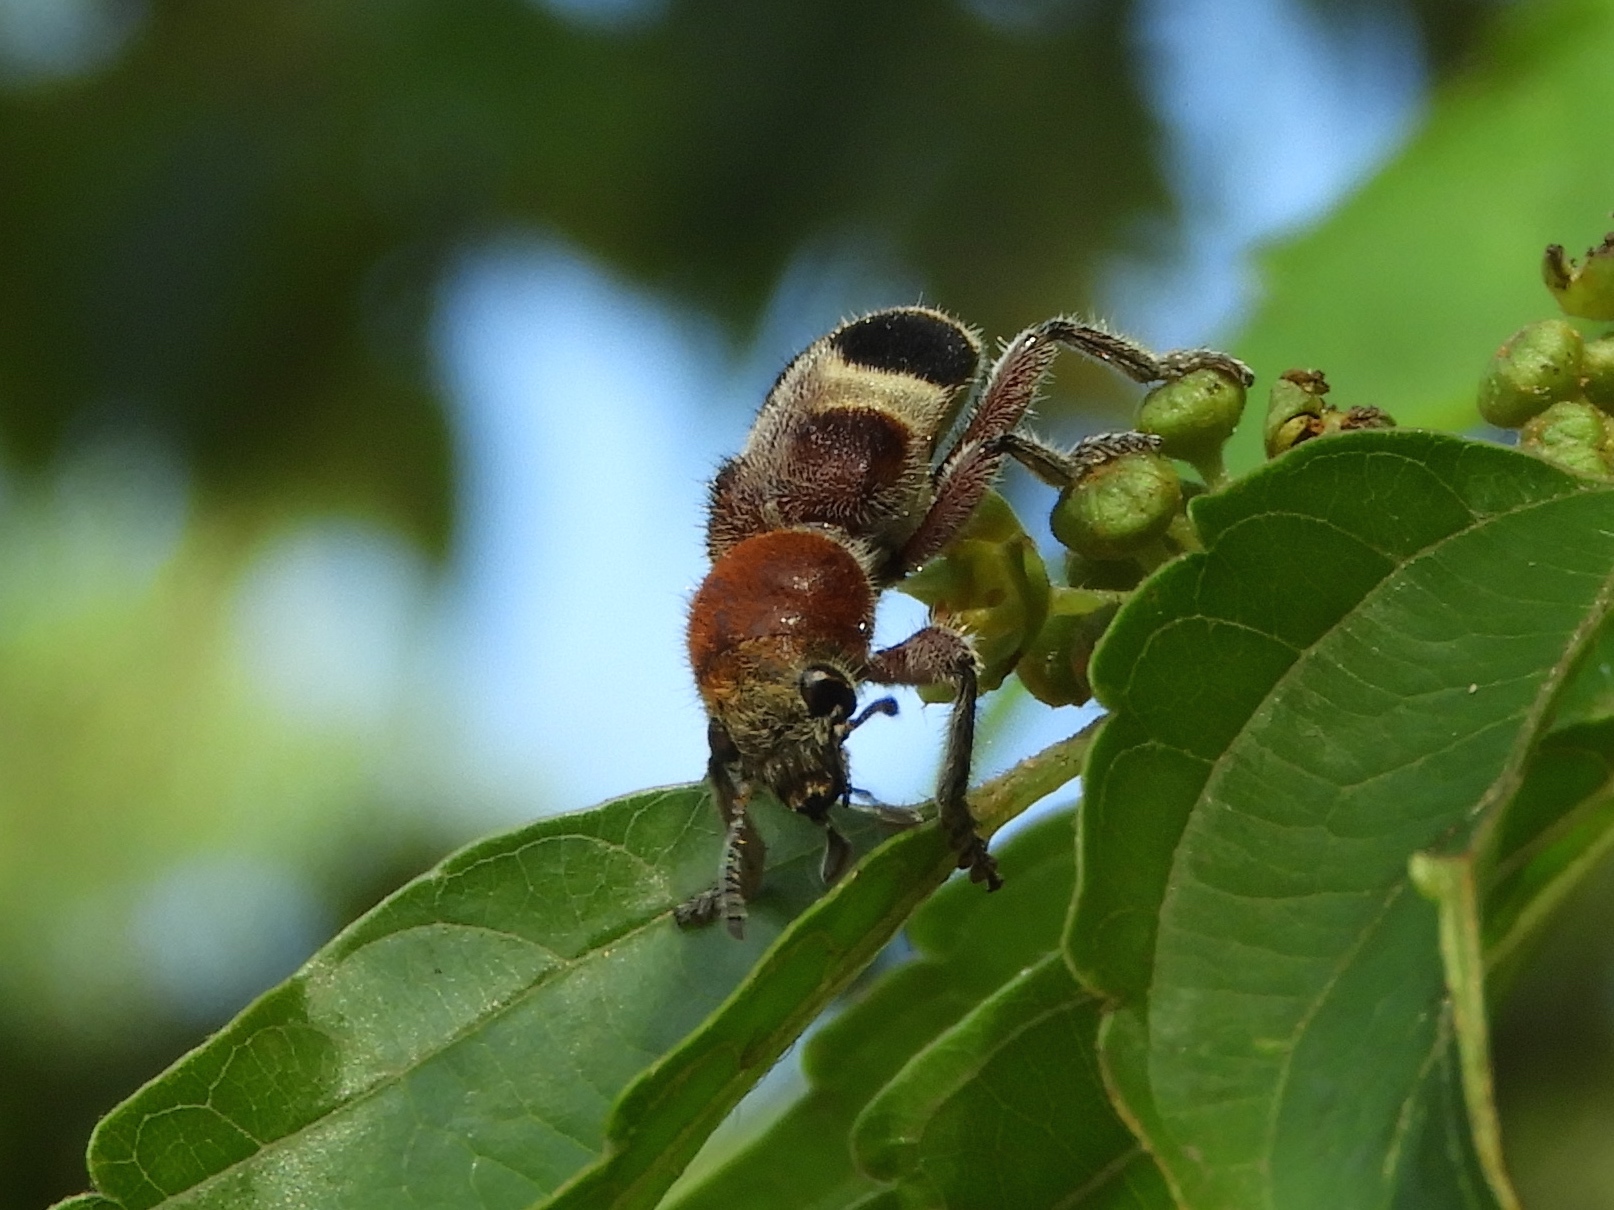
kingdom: Animalia
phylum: Arthropoda
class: Insecta
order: Coleoptera
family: Cleridae
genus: Enoclerus
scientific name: Enoclerus quadriguttatus
